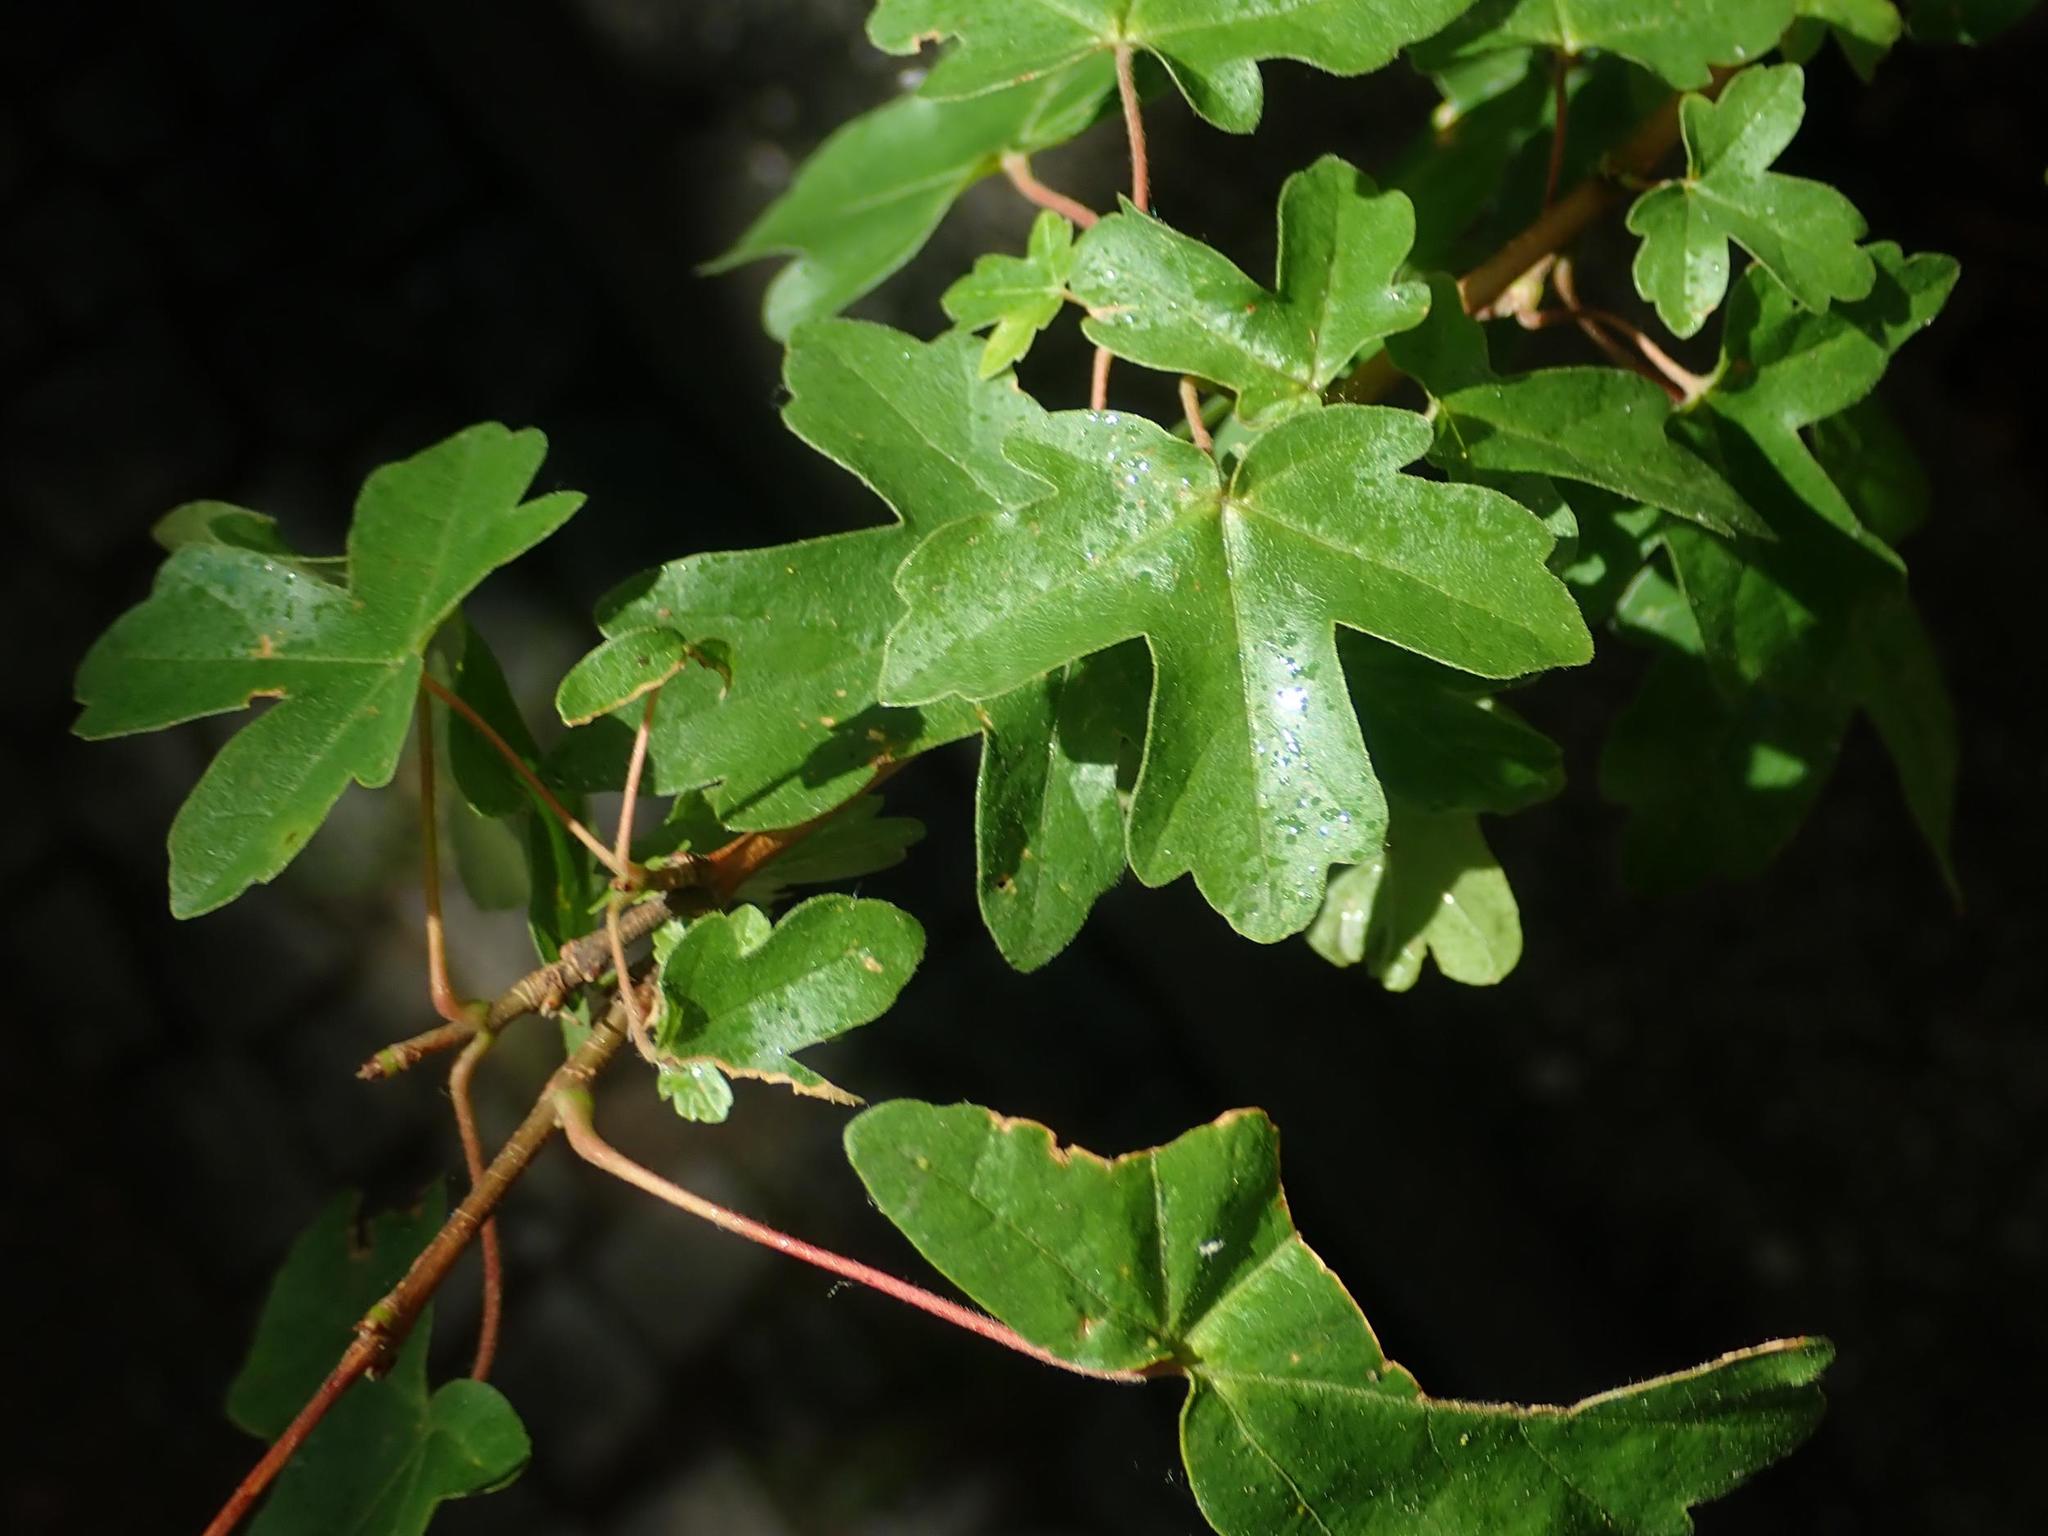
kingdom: Plantae
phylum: Tracheophyta
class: Magnoliopsida
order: Sapindales
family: Sapindaceae
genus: Acer
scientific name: Acer campestre
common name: Field maple
